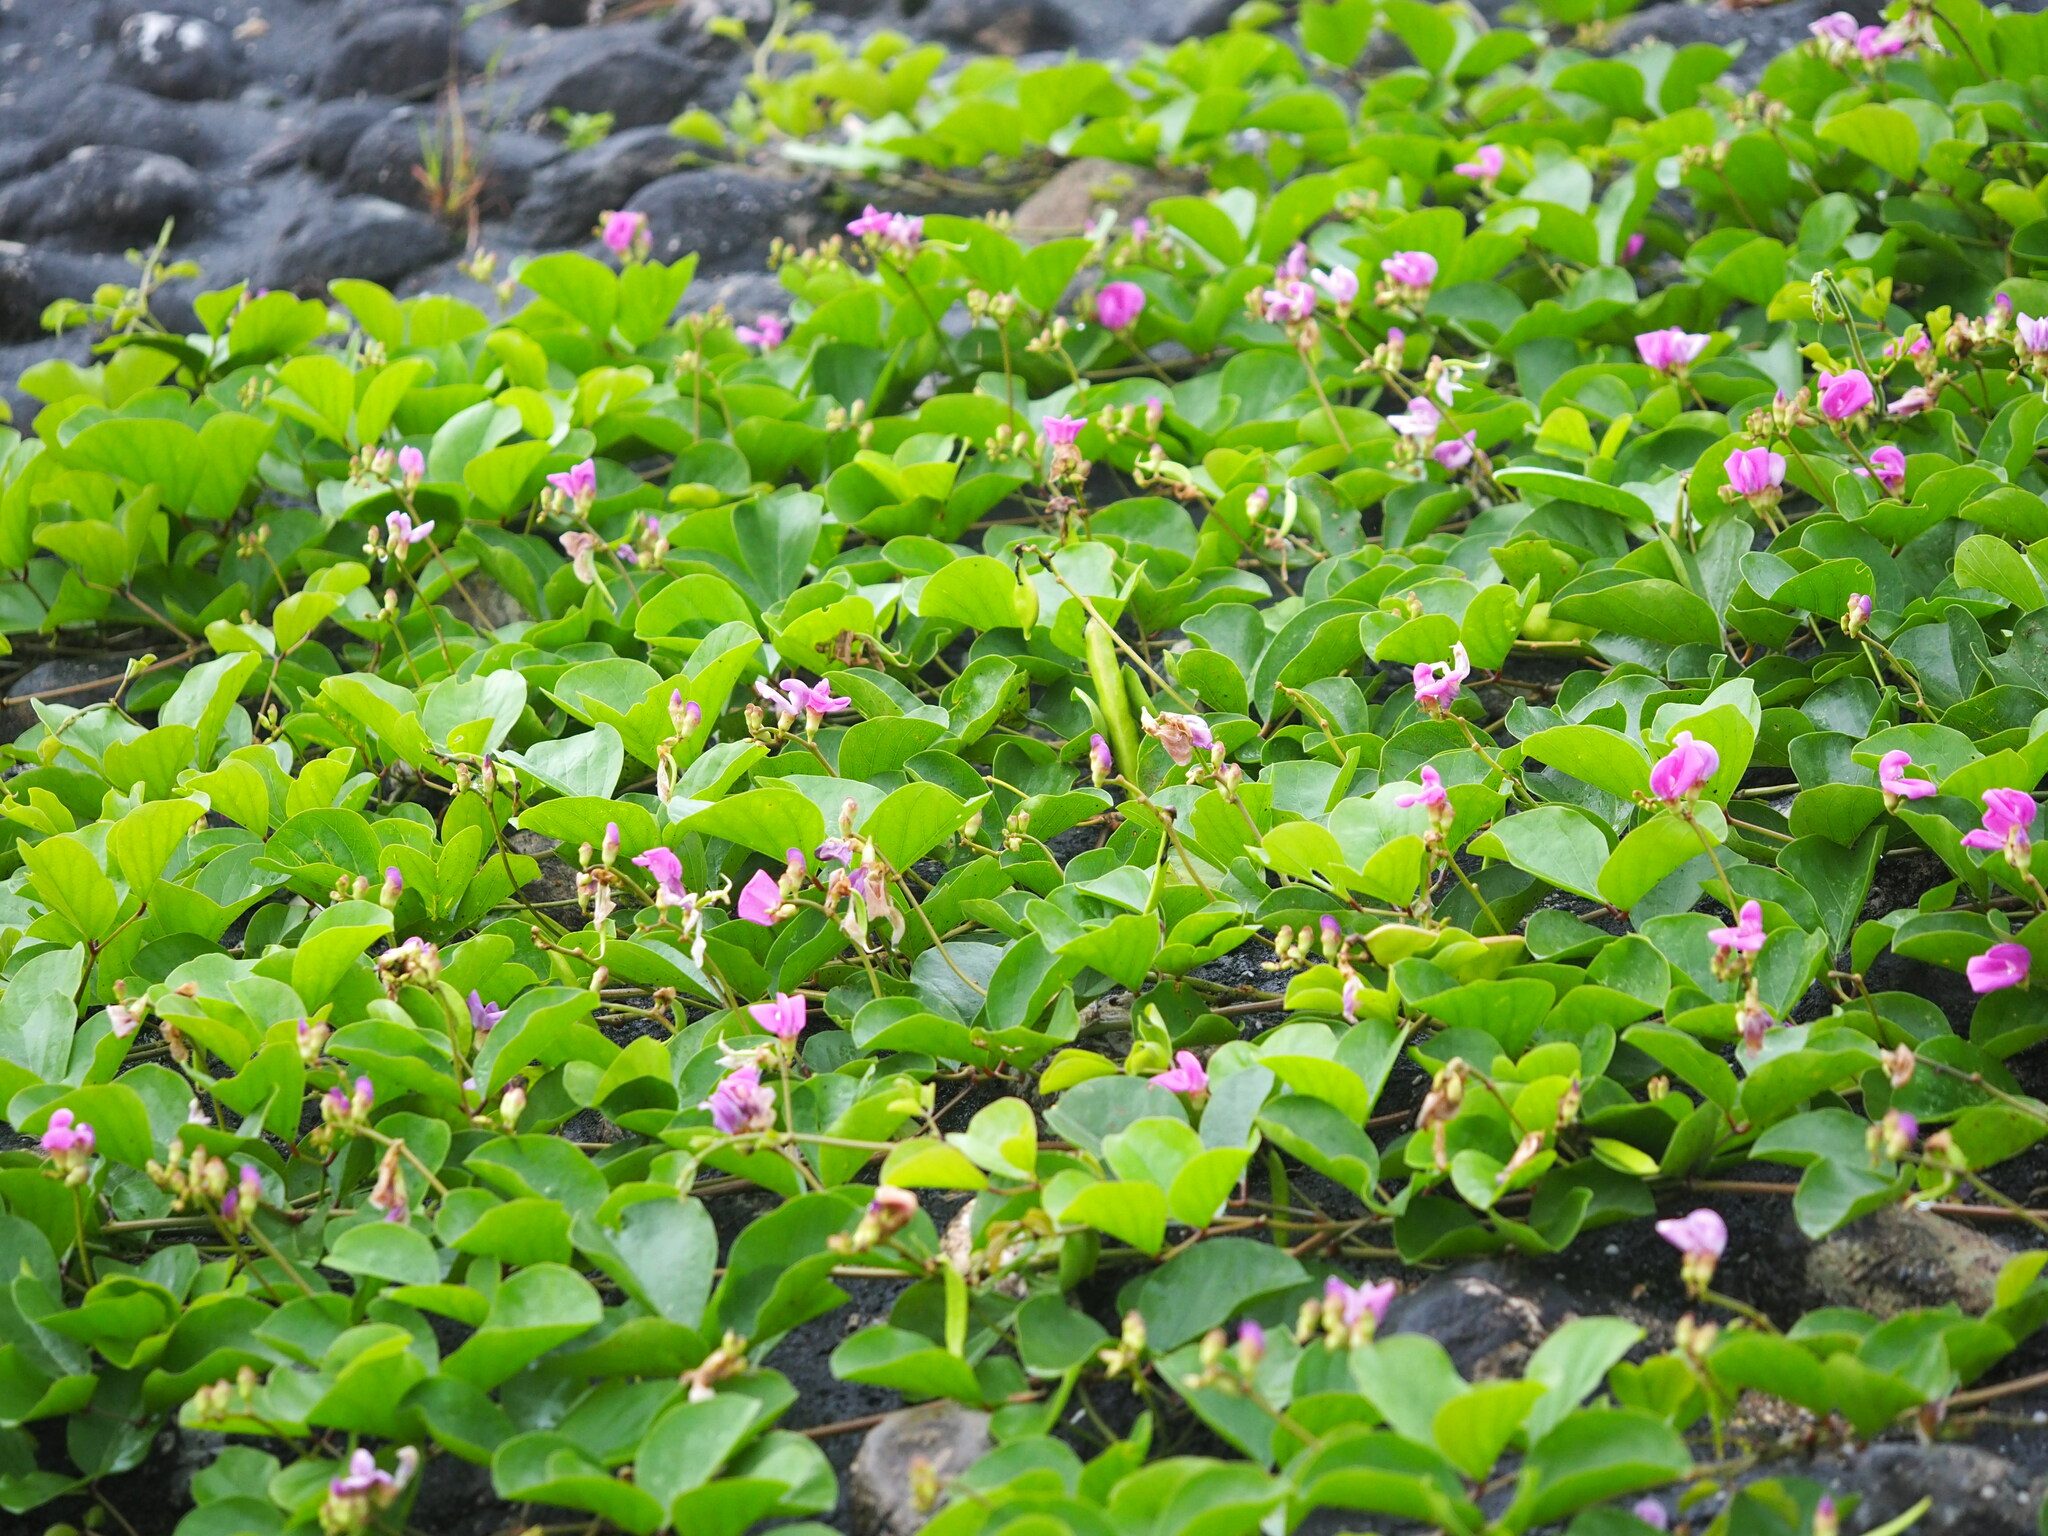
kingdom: Plantae
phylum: Tracheophyta
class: Magnoliopsida
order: Fabales
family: Fabaceae
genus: Canavalia
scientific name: Canavalia rosea
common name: Beach-bean
